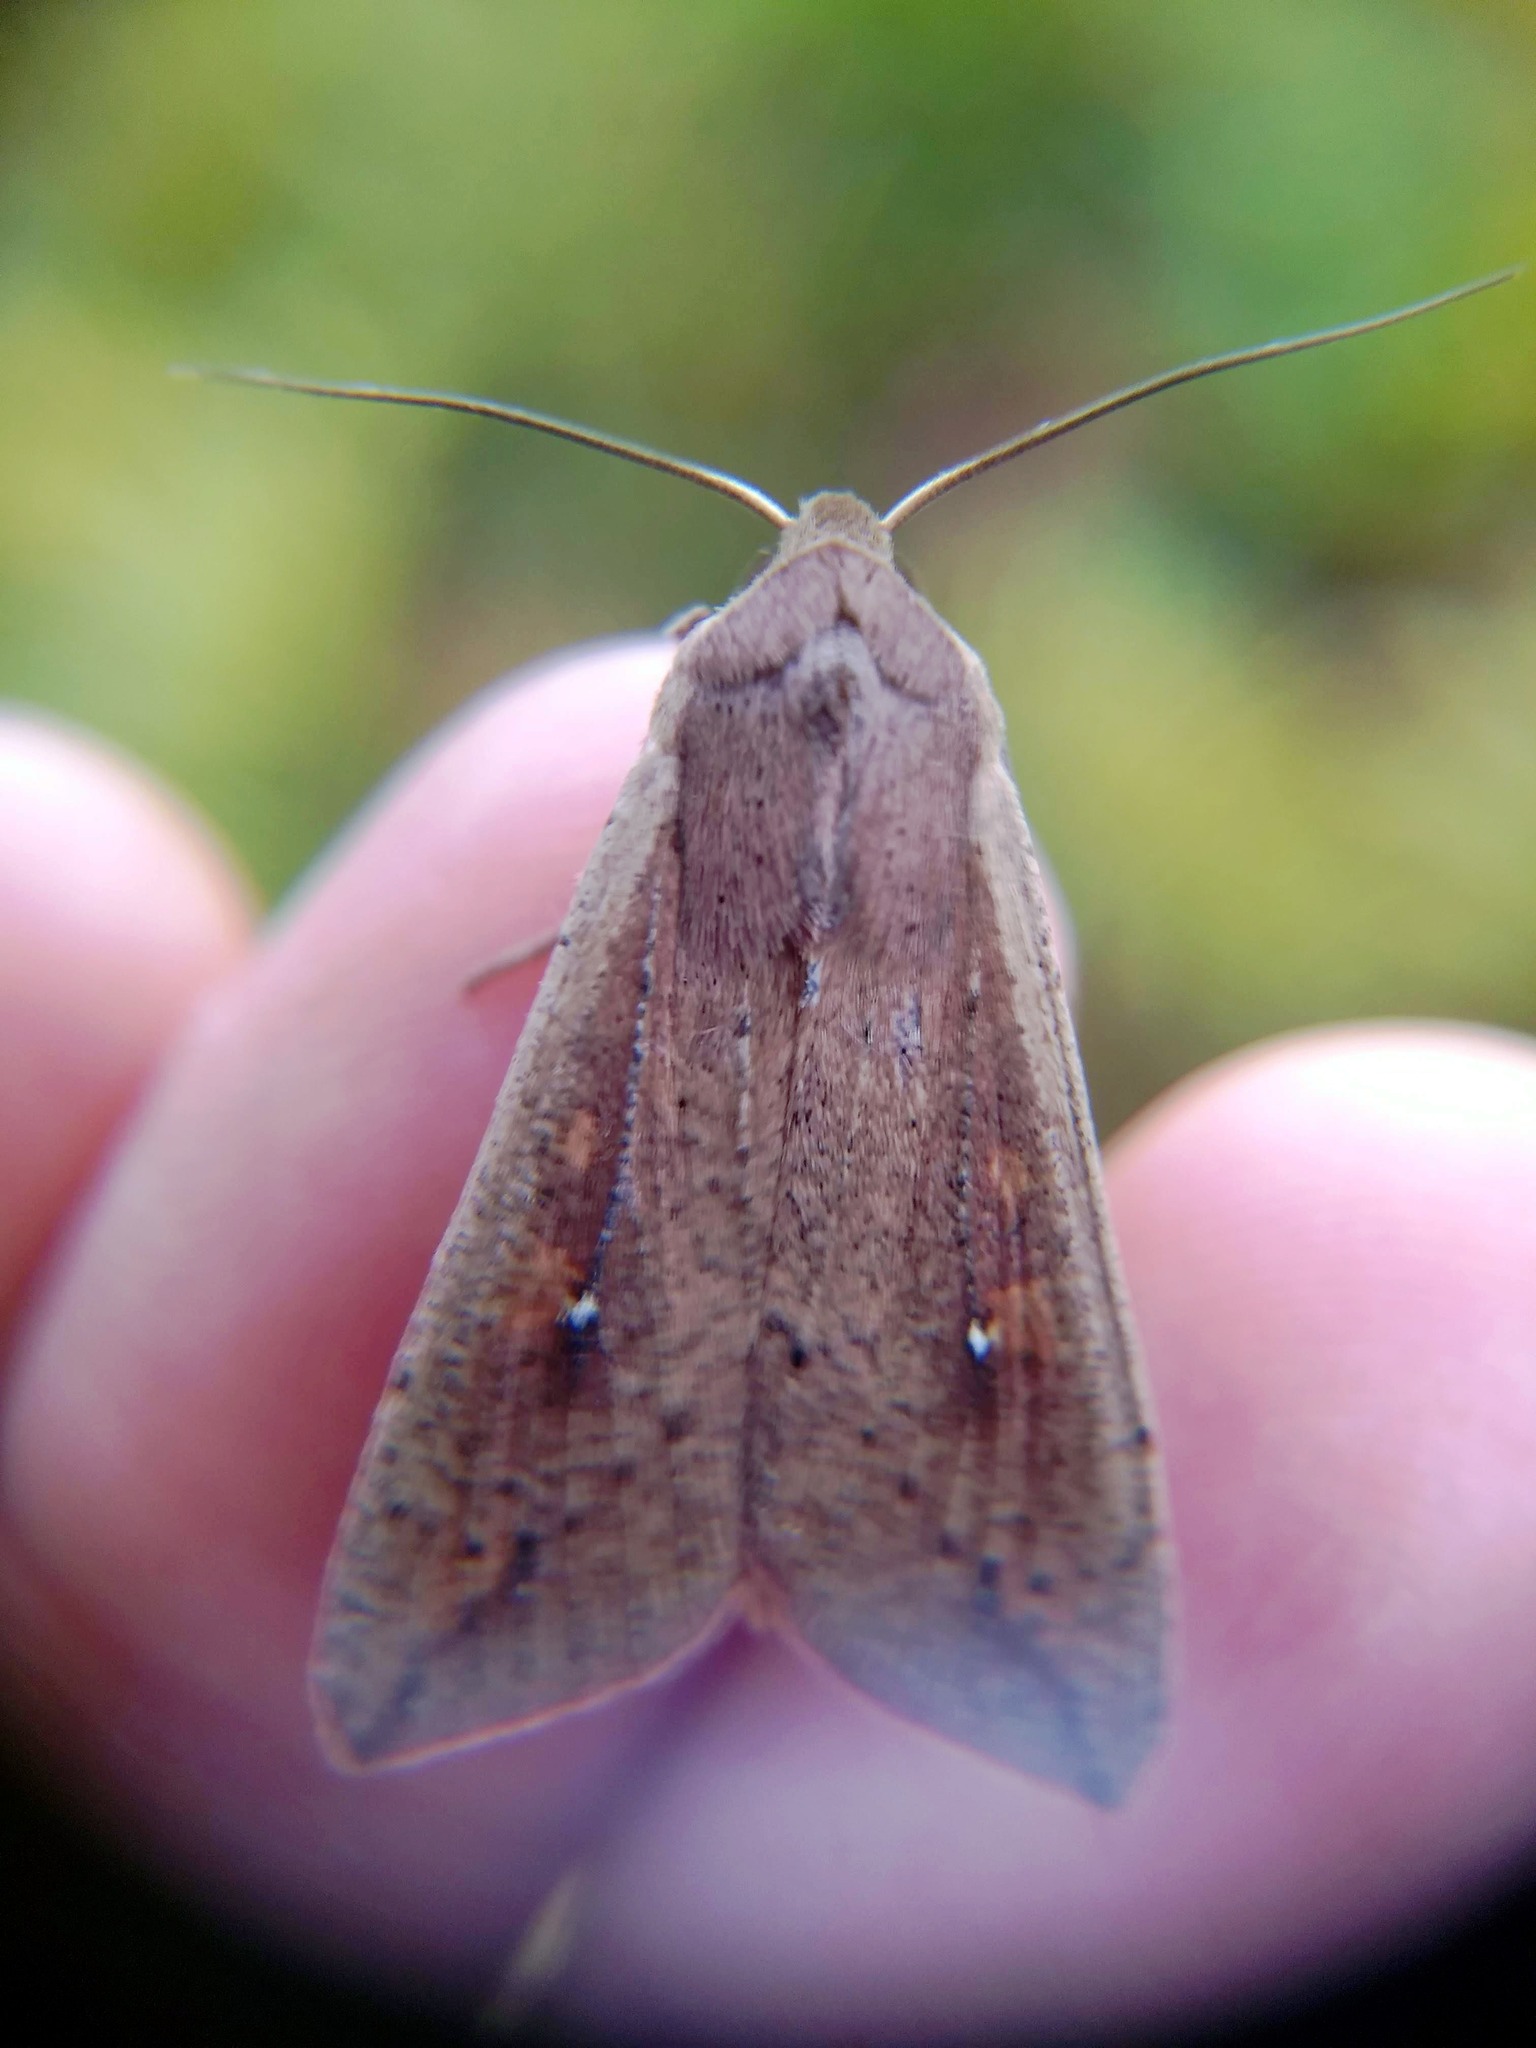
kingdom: Animalia
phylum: Arthropoda
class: Insecta
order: Lepidoptera
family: Noctuidae
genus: Mythimna
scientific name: Mythimna unipuncta
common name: White-speck
